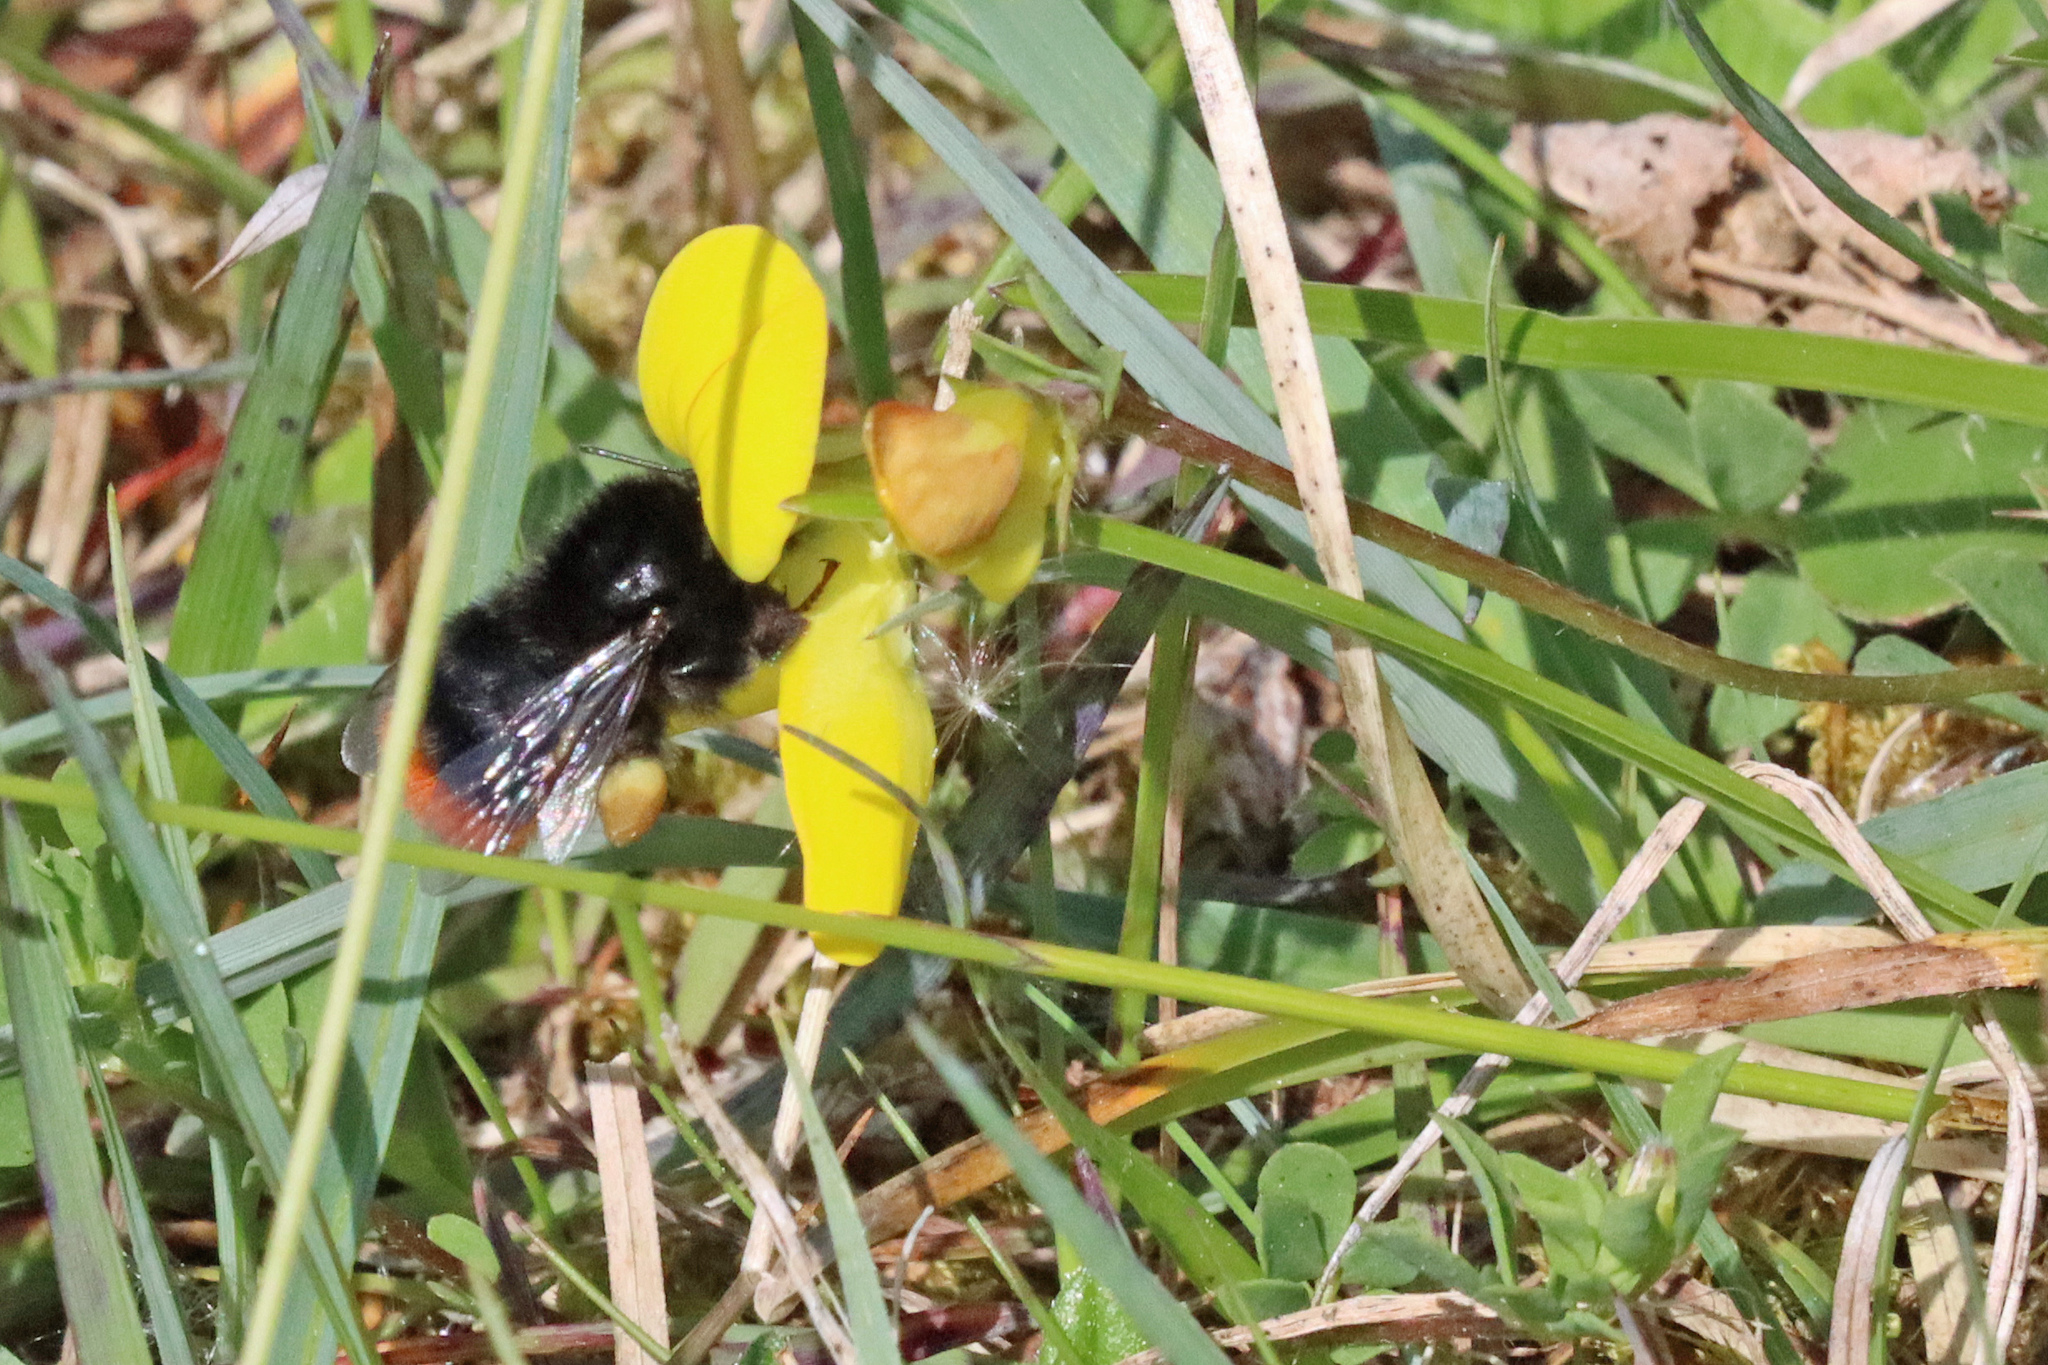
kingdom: Animalia
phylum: Arthropoda
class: Insecta
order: Hymenoptera
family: Apidae
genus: Bombus
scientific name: Bombus lapidarius
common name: Large red-tailed humble-bee
